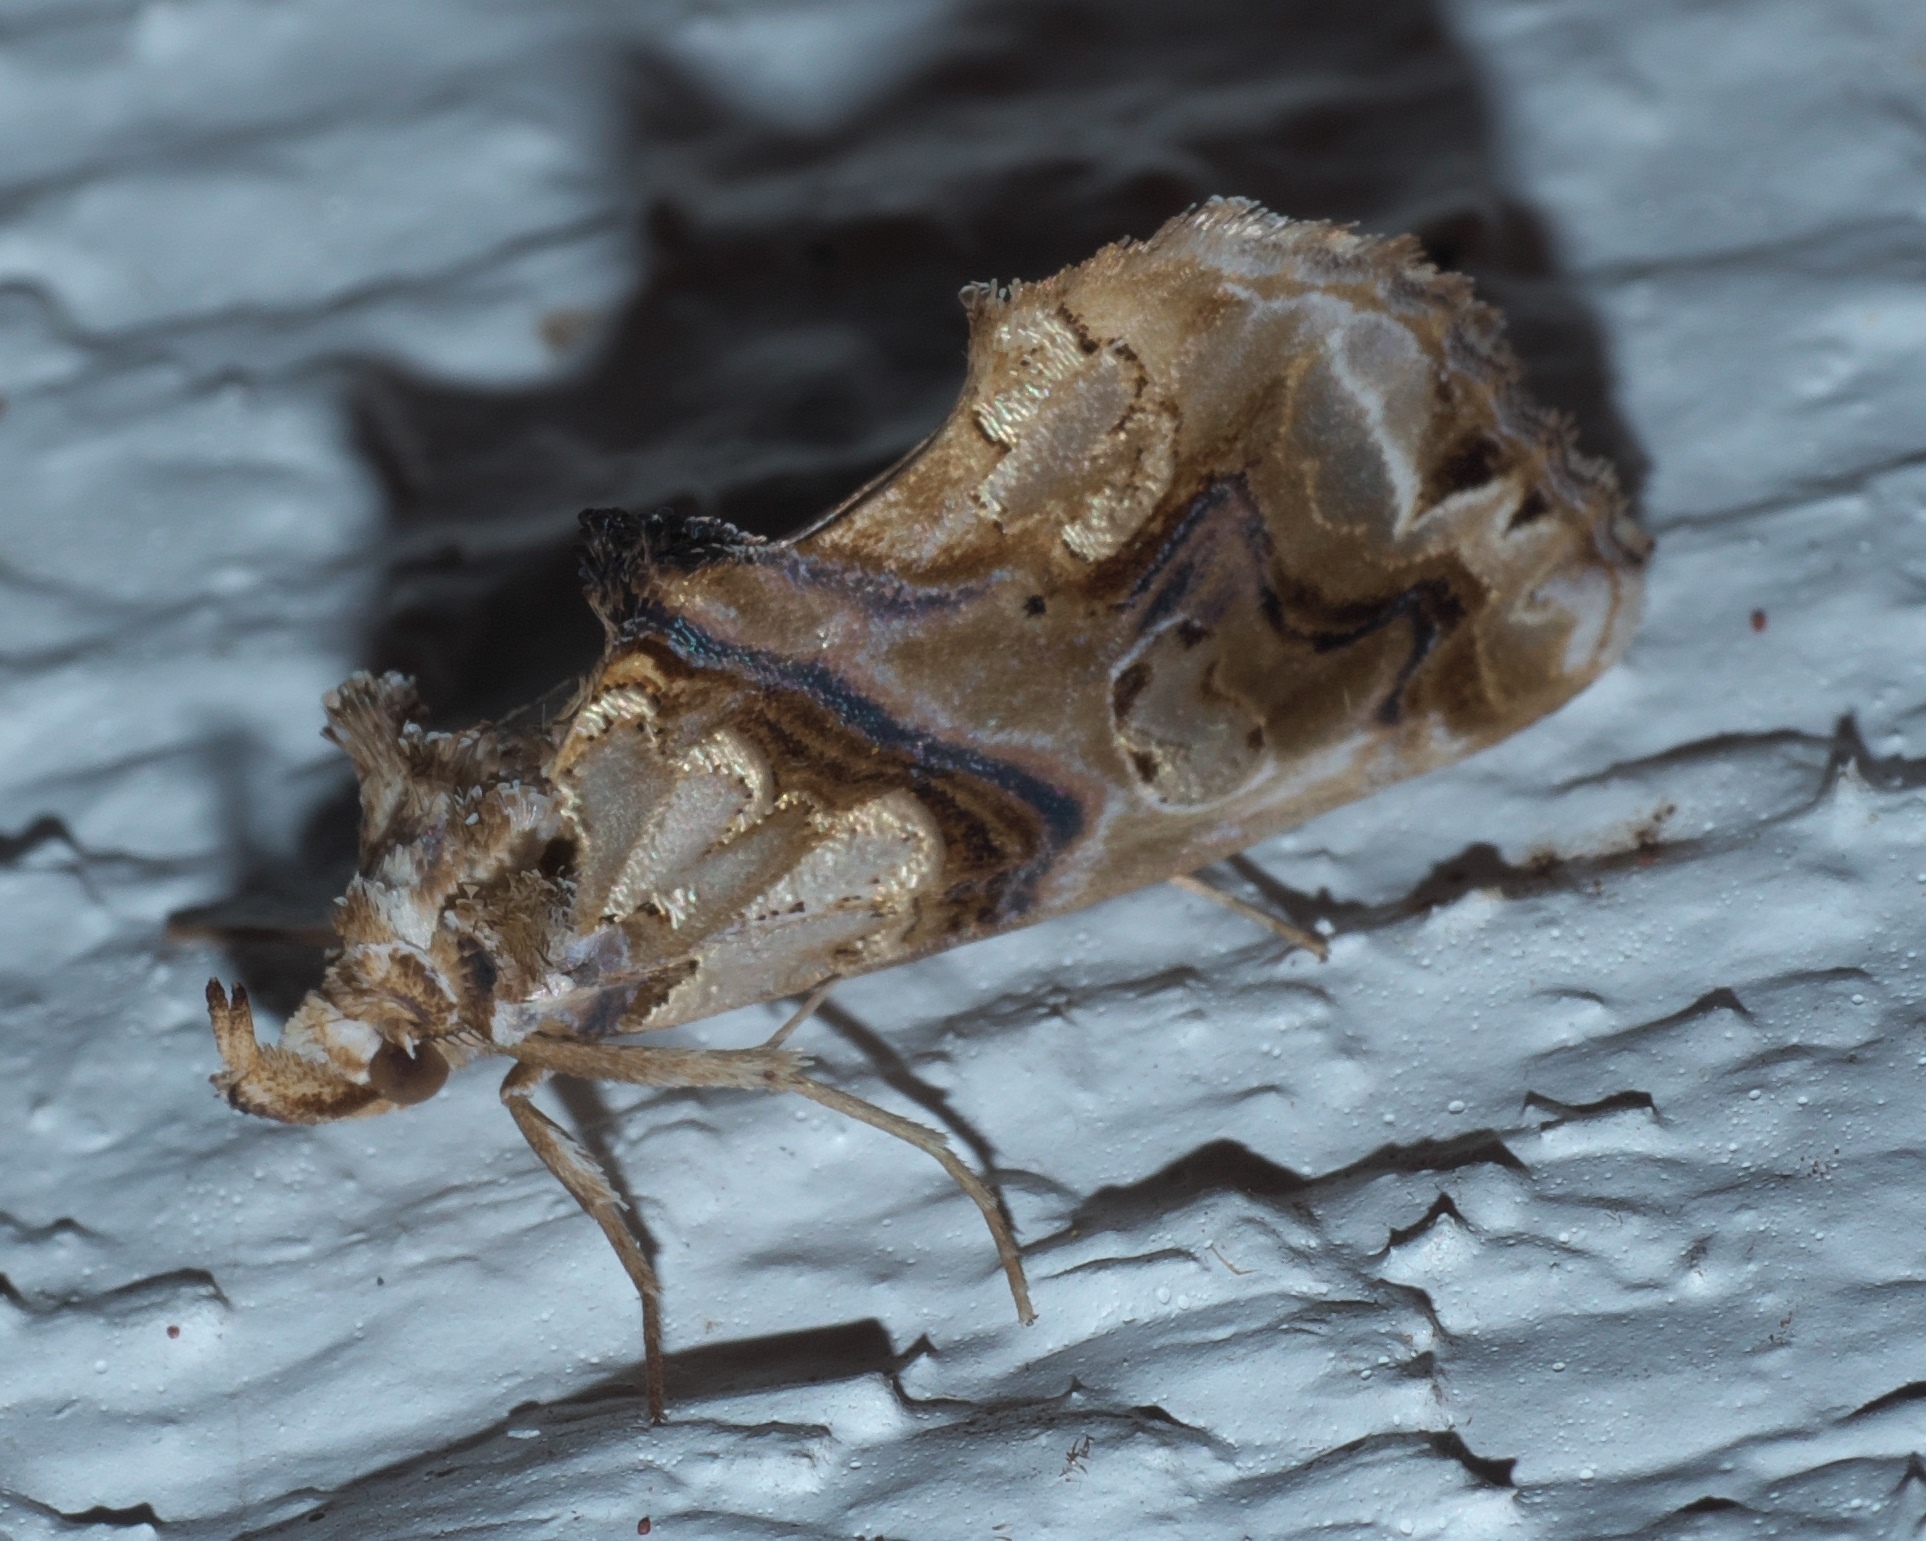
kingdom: Animalia
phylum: Arthropoda
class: Insecta
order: Lepidoptera
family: Erebidae
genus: Plusiodonta
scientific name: Plusiodonta compressipalpis
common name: Moonseed moth
